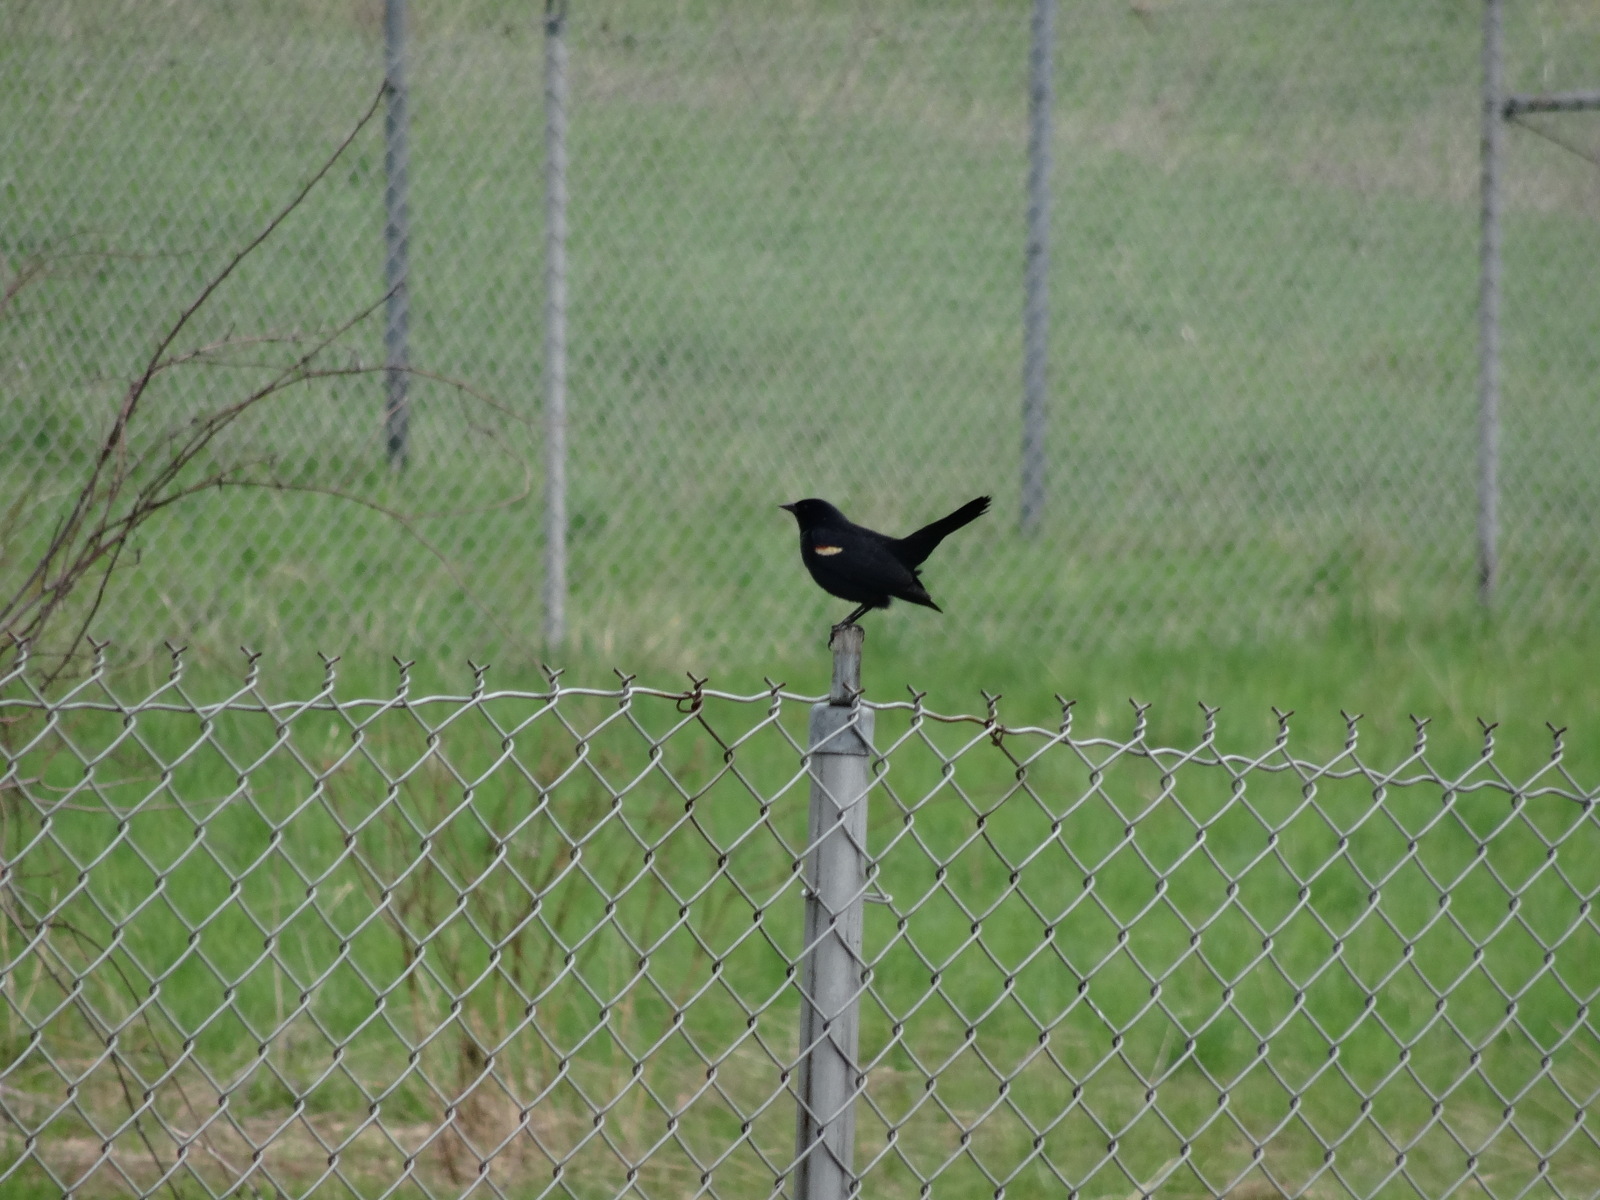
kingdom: Animalia
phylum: Chordata
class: Aves
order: Passeriformes
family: Icteridae
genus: Agelaius
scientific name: Agelaius phoeniceus
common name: Red-winged blackbird
